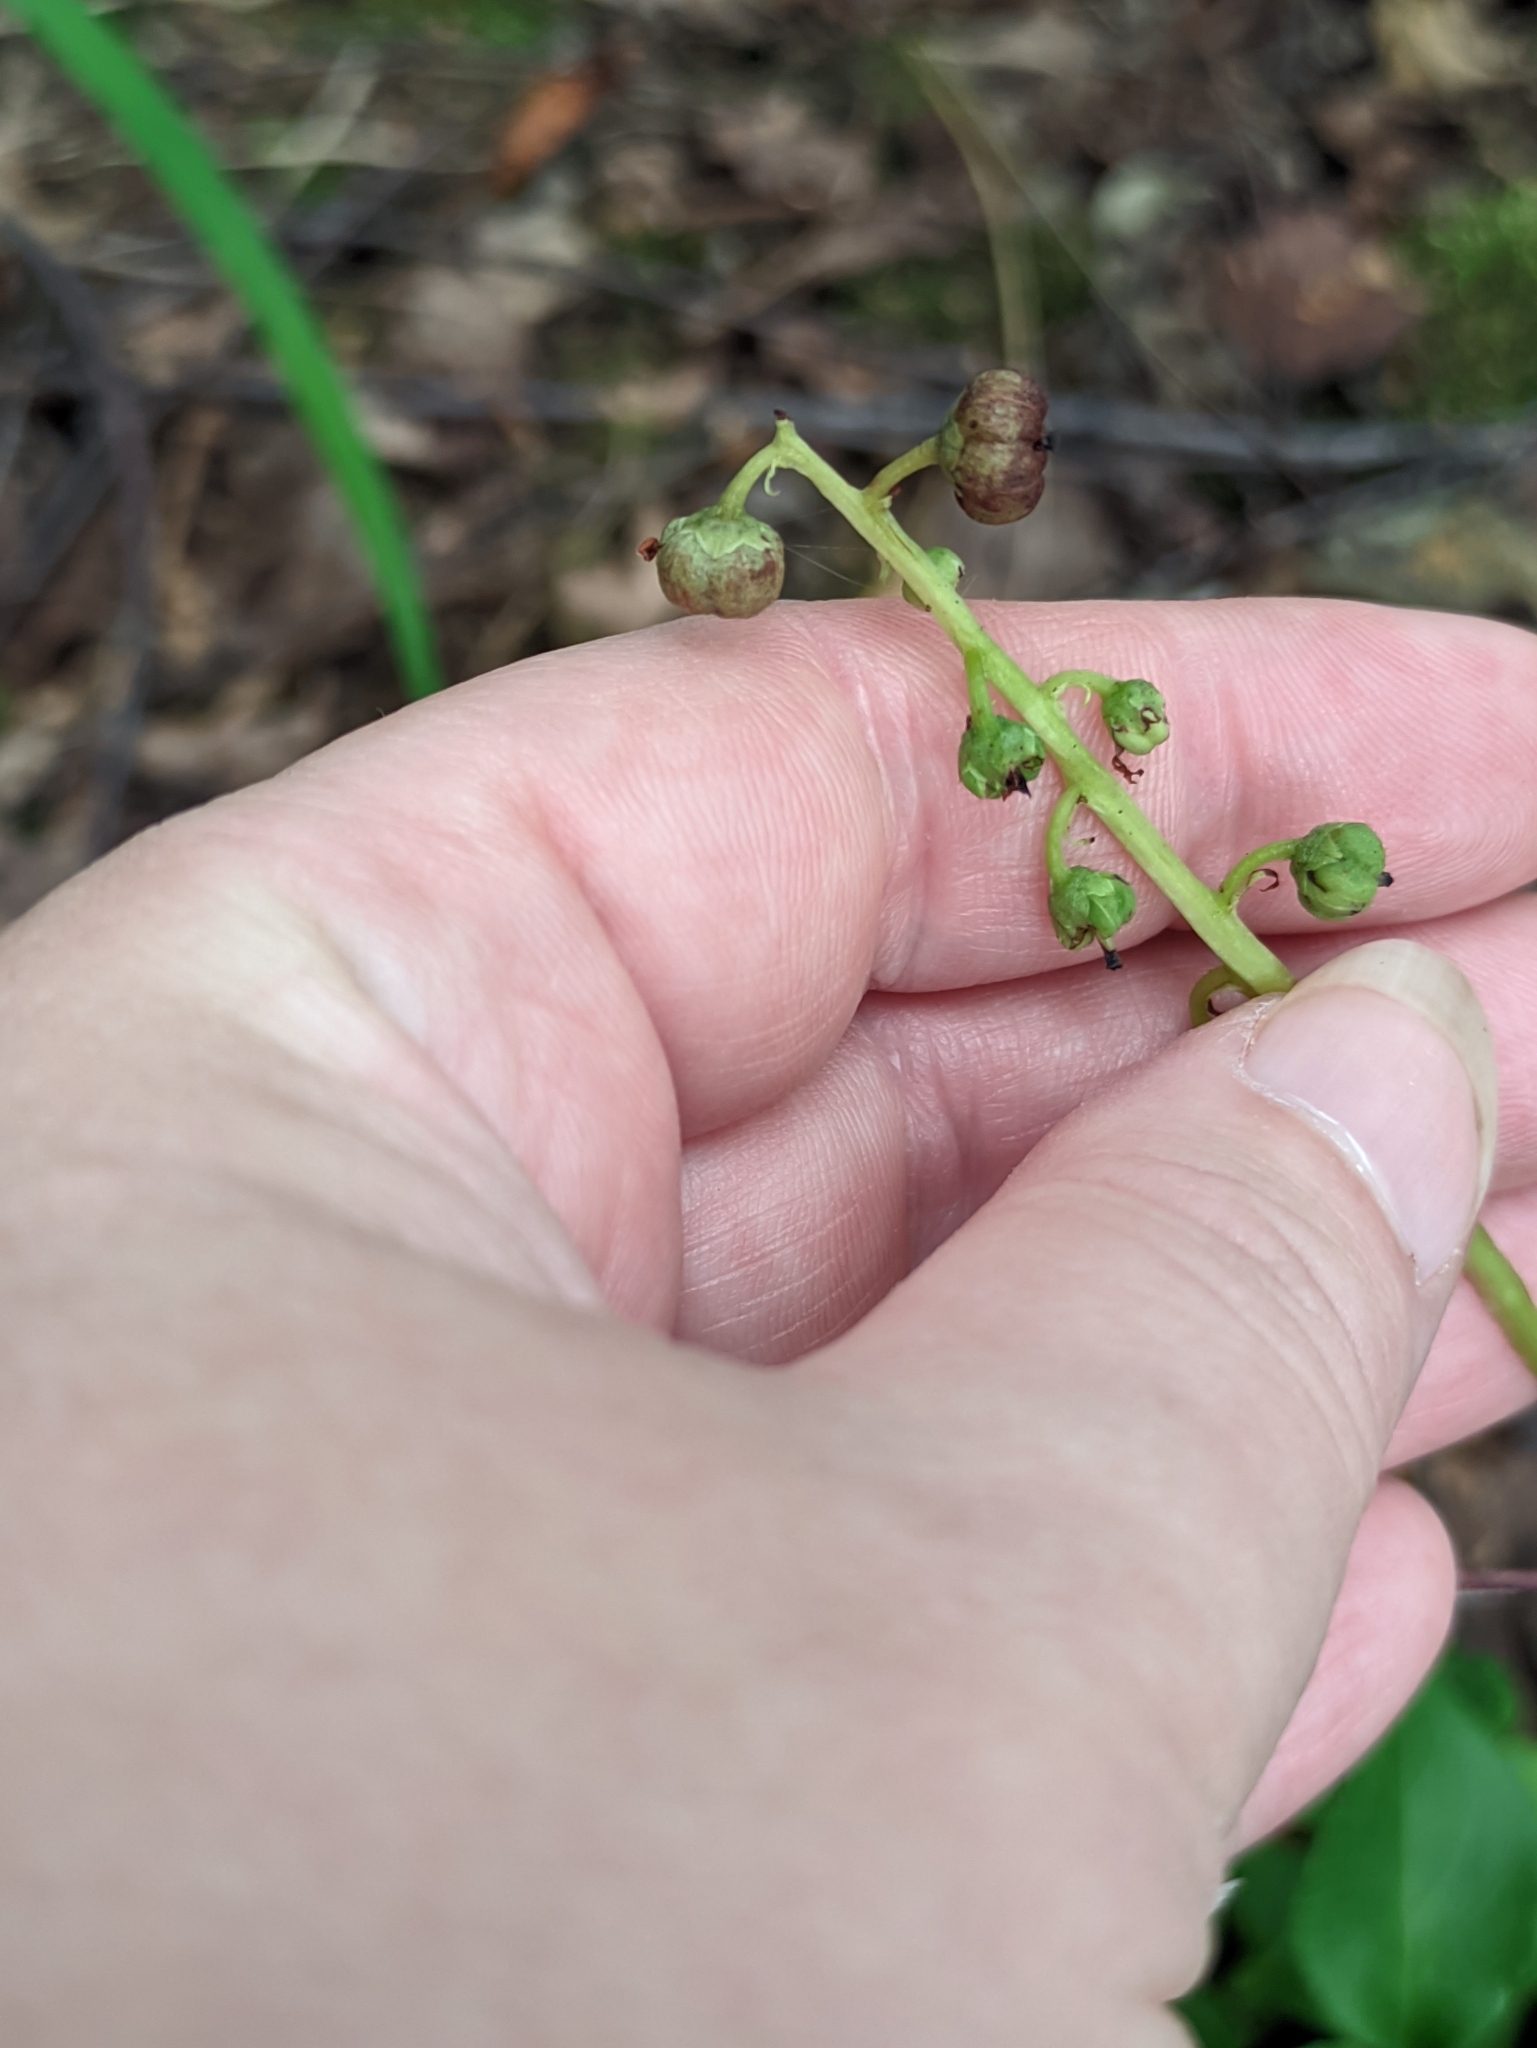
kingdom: Plantae
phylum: Tracheophyta
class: Magnoliopsida
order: Ericales
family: Ericaceae
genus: Pyrola
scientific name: Pyrola minor
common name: Common wintergreen
